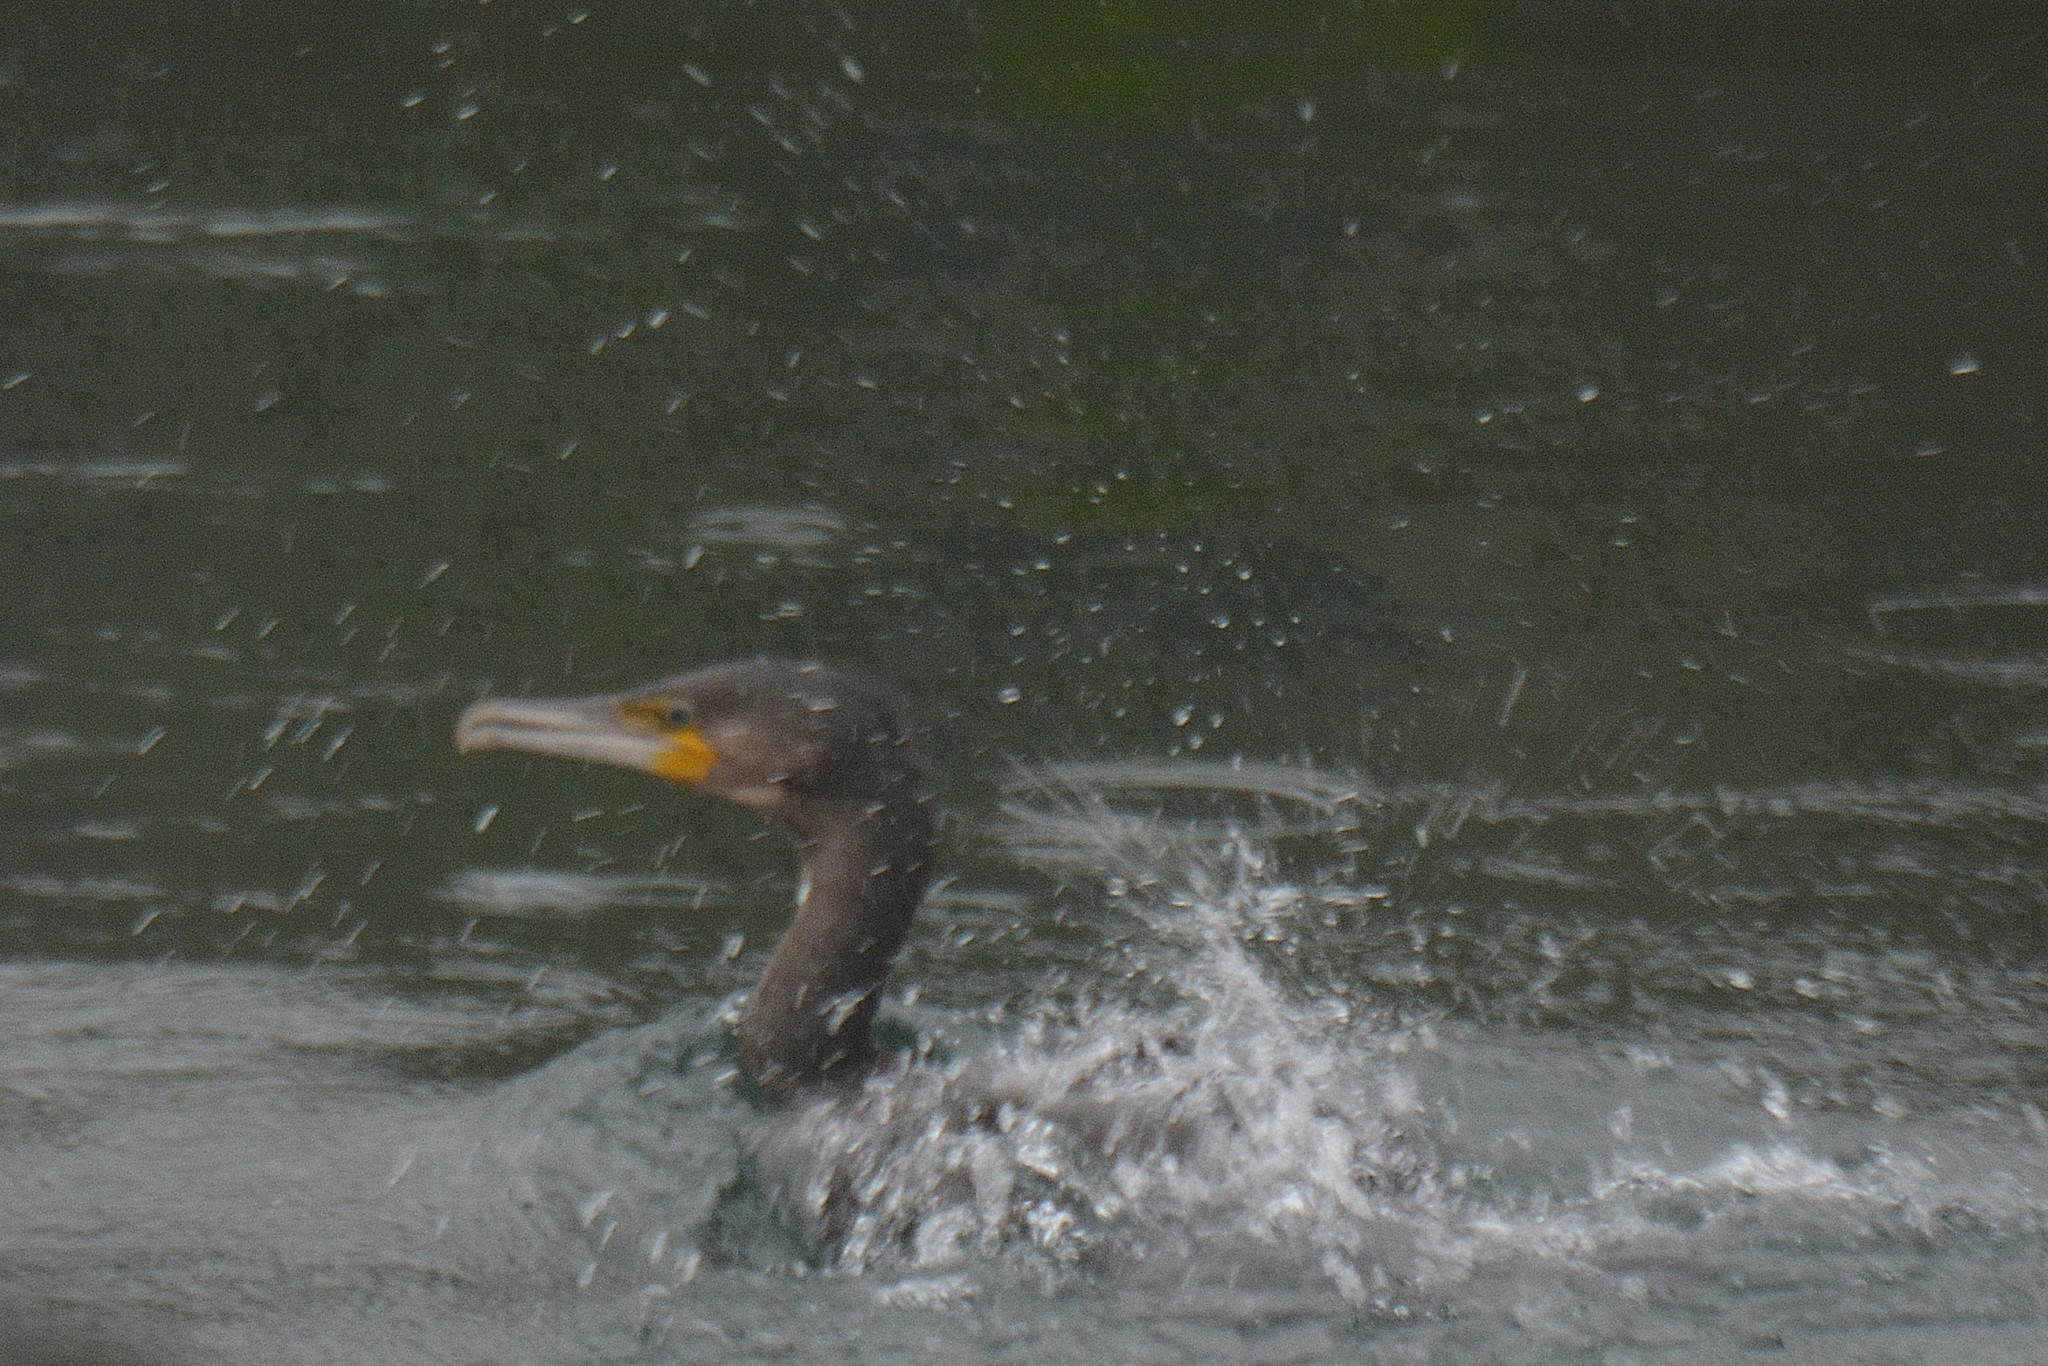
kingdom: Animalia
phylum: Chordata
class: Aves
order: Suliformes
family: Phalacrocoracidae
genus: Phalacrocorax
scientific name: Phalacrocorax carbo
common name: Great cormorant
